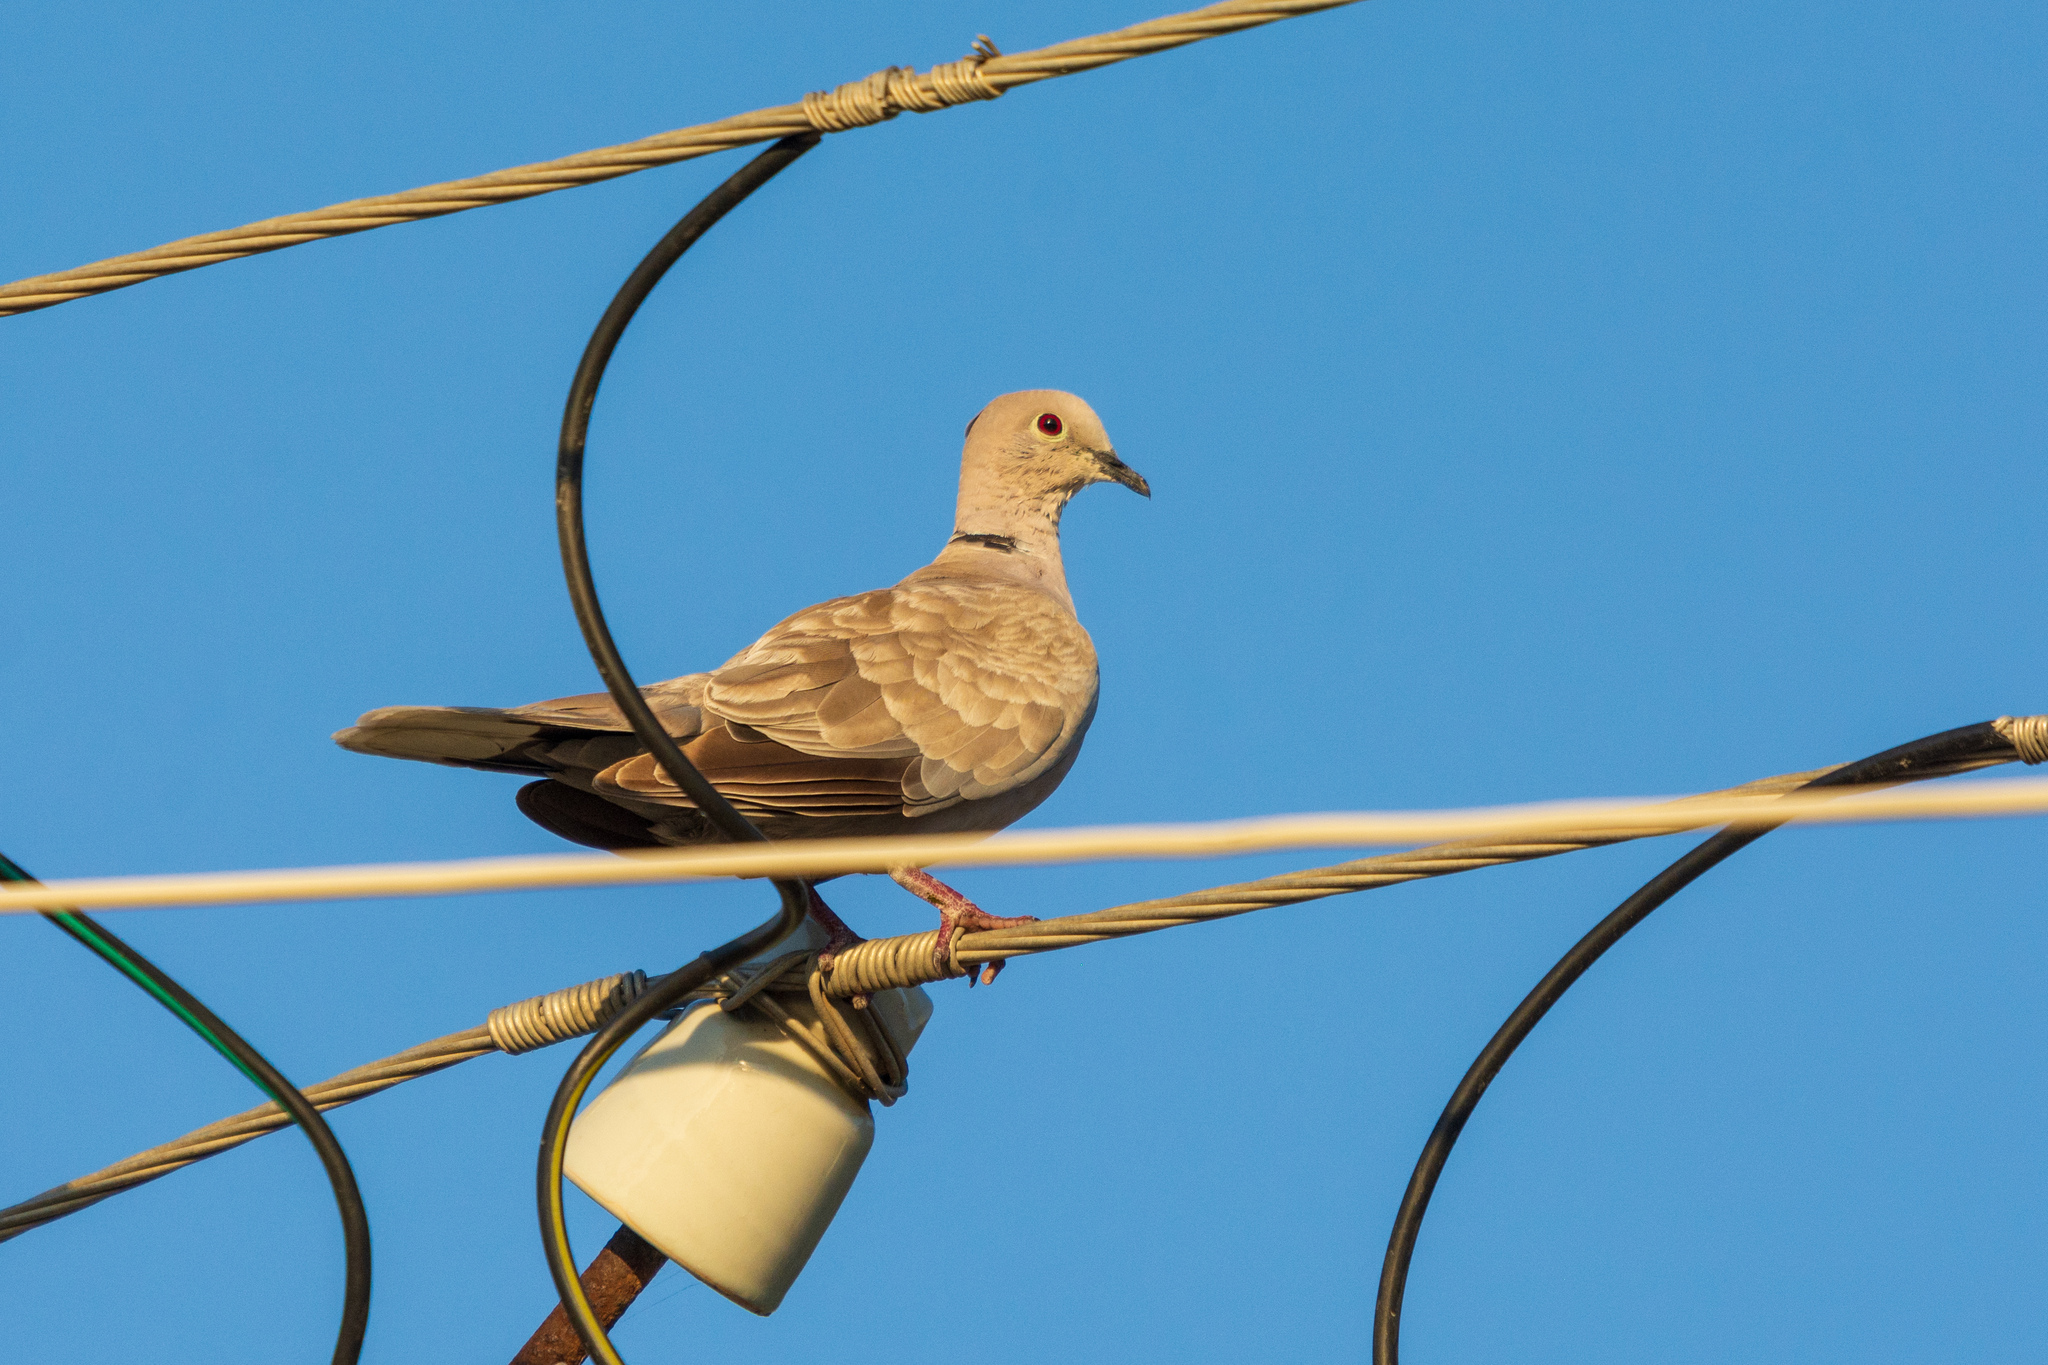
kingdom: Animalia
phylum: Chordata
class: Aves
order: Columbiformes
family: Columbidae
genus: Streptopelia
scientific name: Streptopelia decaocto
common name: Eurasian collared dove
